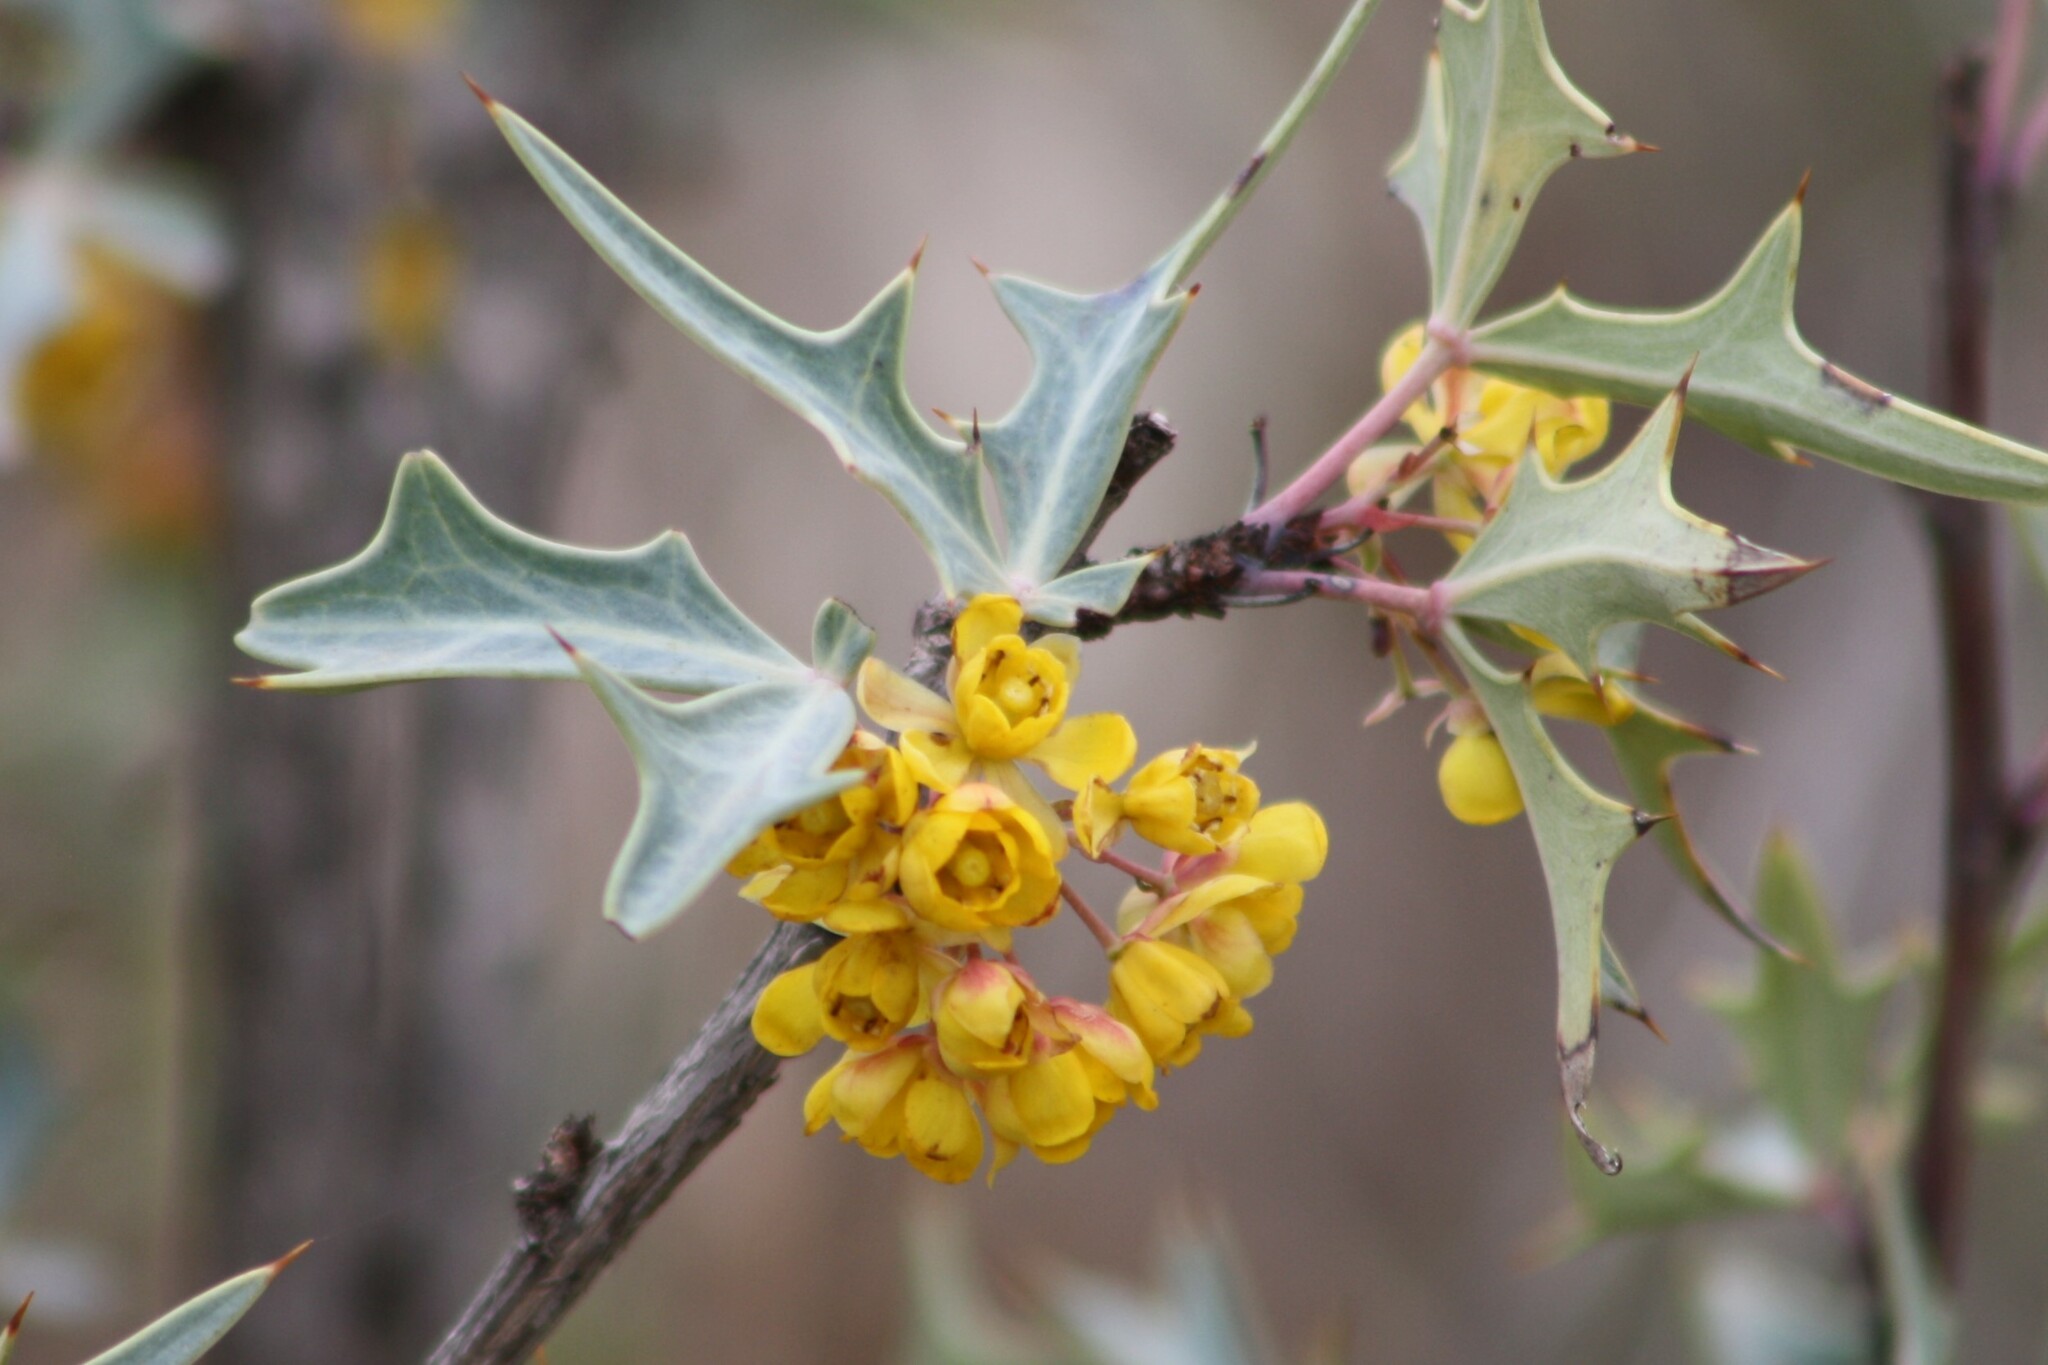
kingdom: Plantae
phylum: Tracheophyta
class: Magnoliopsida
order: Ranunculales
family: Berberidaceae
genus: Alloberberis
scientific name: Alloberberis trifoliolata
